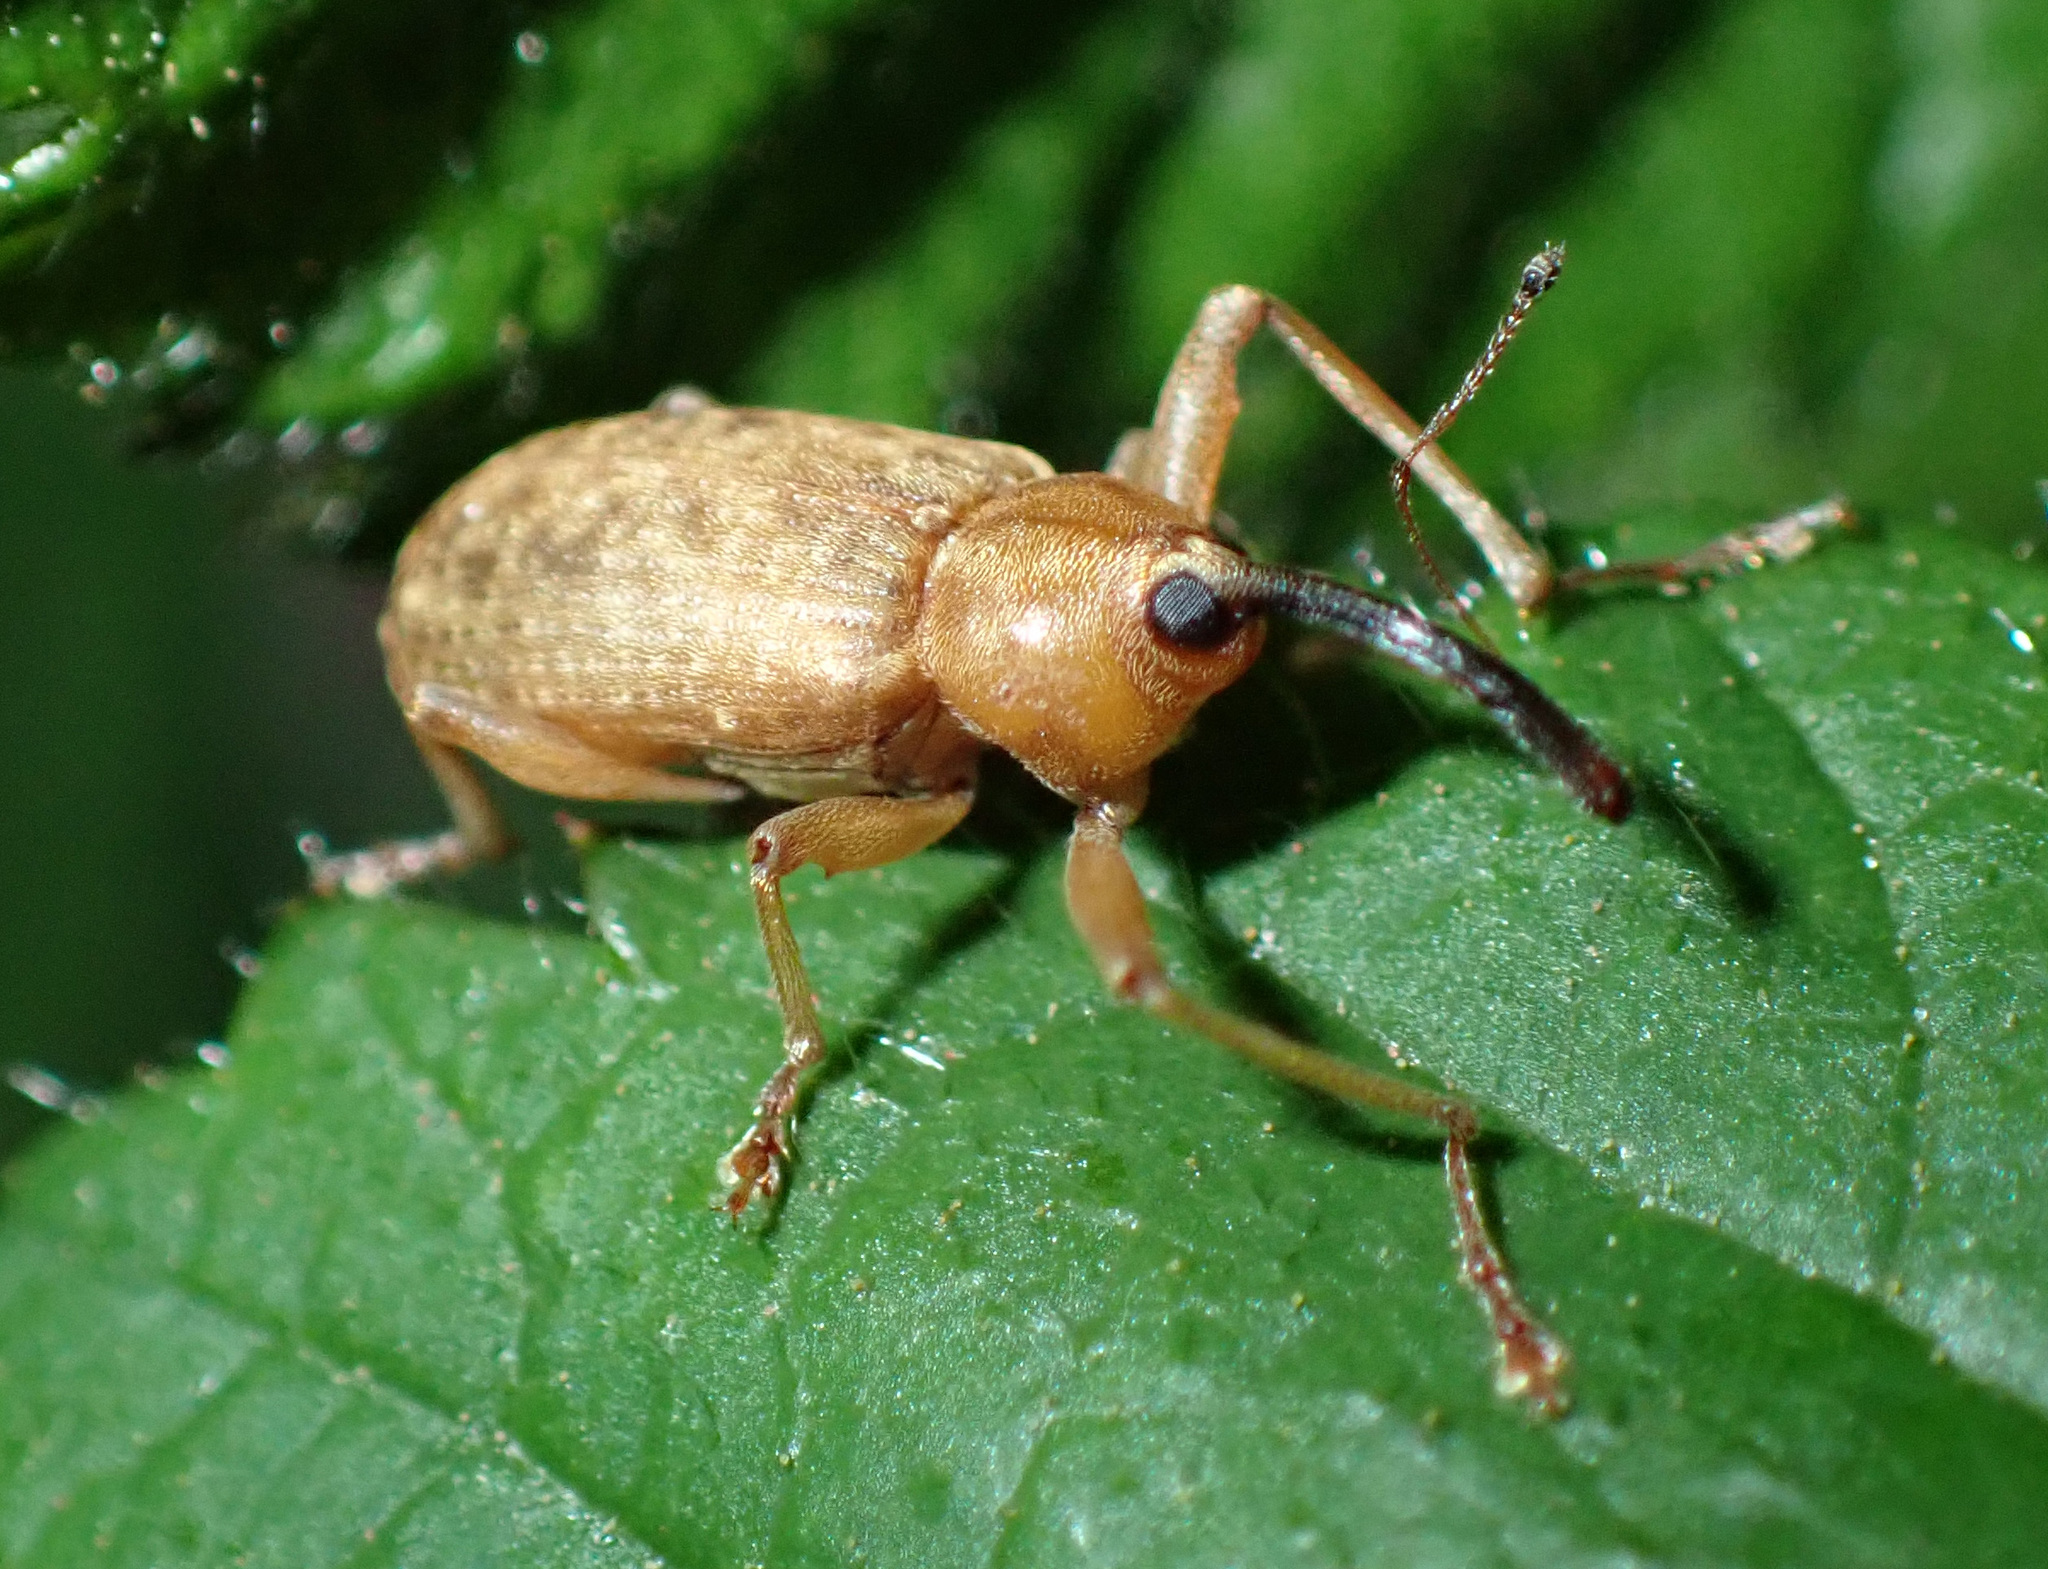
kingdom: Animalia
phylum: Arthropoda
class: Insecta
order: Coleoptera
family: Curculionidae
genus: Dorytomus
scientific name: Dorytomus longimanus
